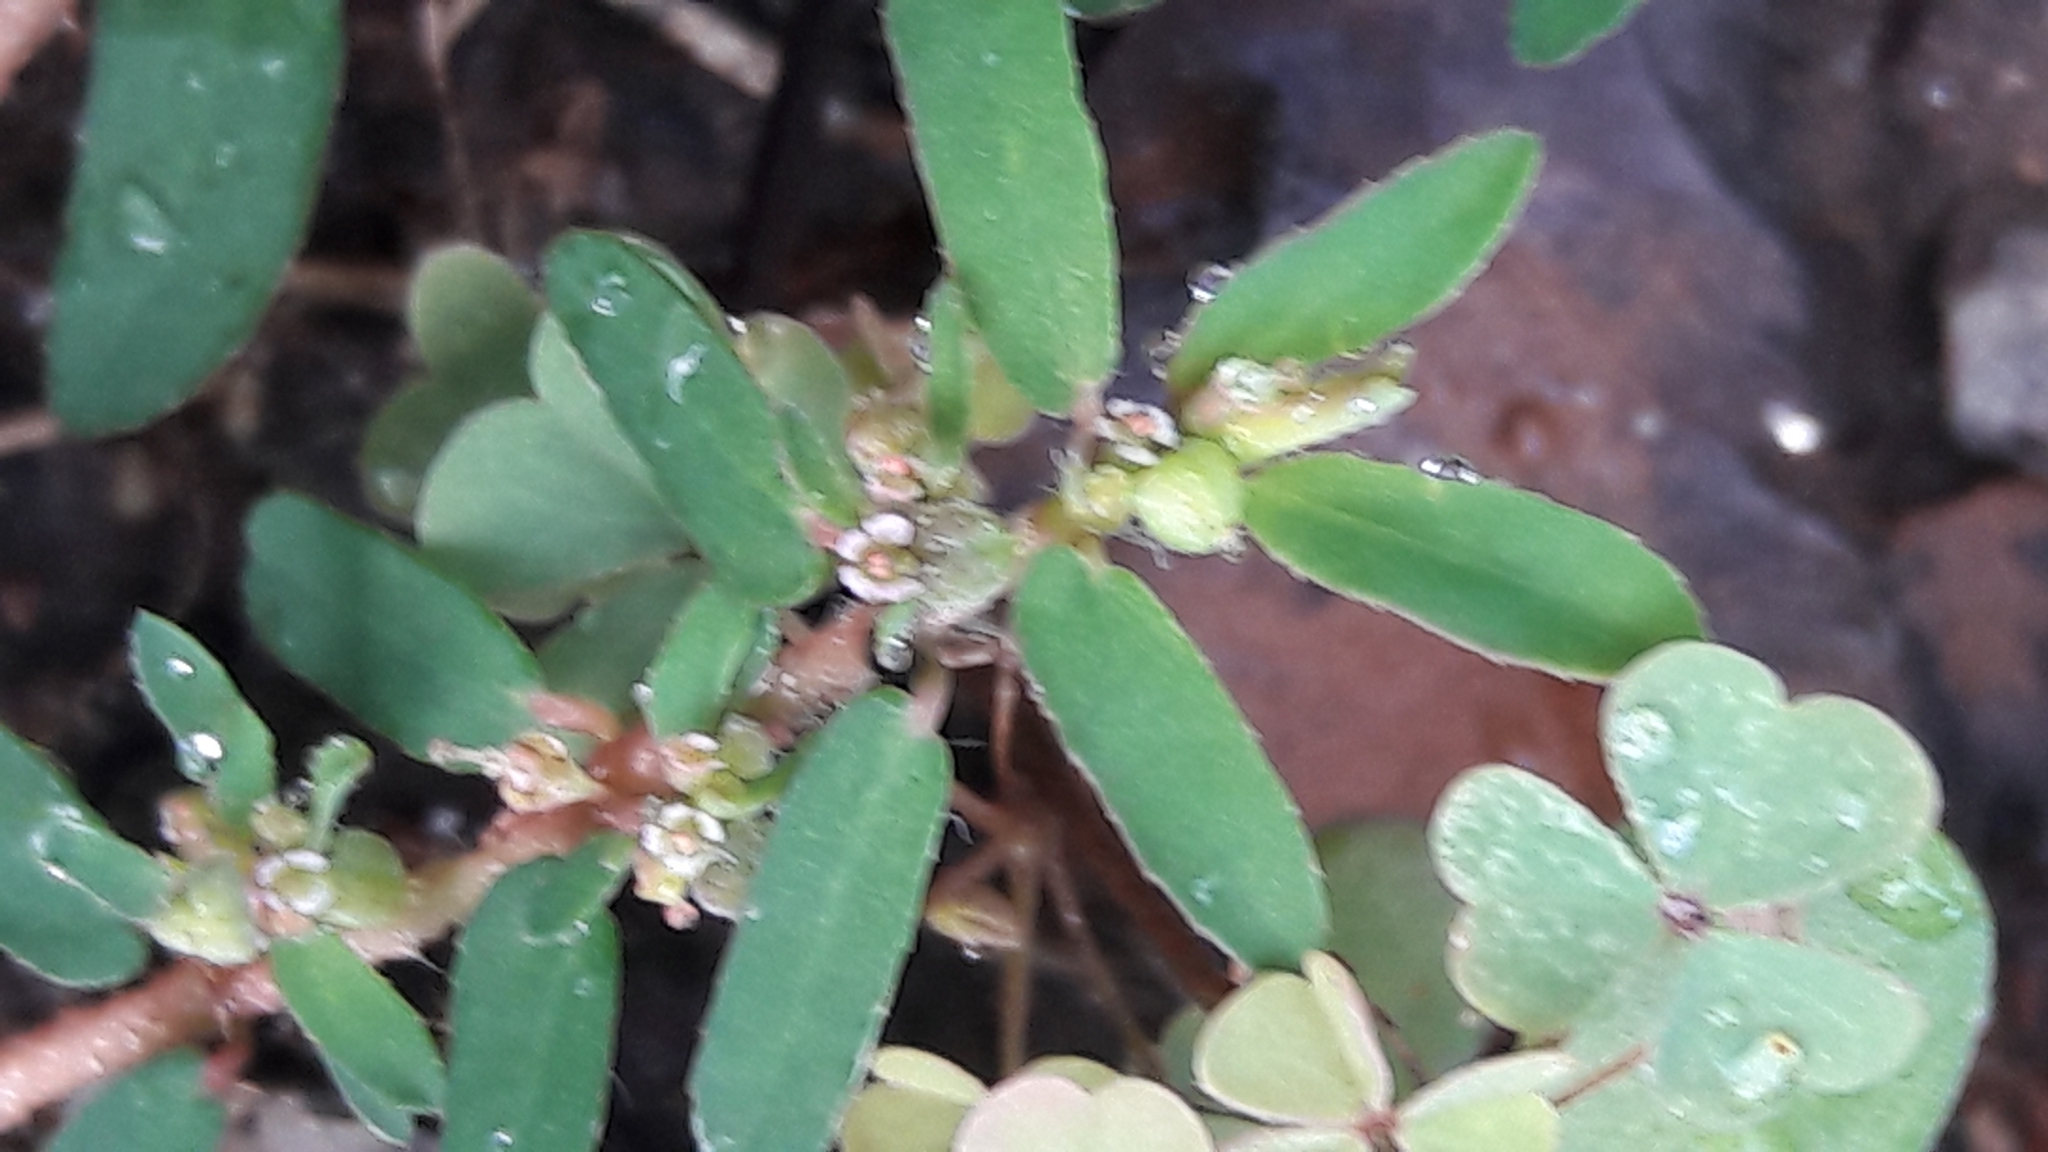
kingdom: Plantae
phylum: Tracheophyta
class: Magnoliopsida
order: Malpighiales
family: Euphorbiaceae
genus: Euphorbia
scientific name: Euphorbia maculata
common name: Spotted spurge
